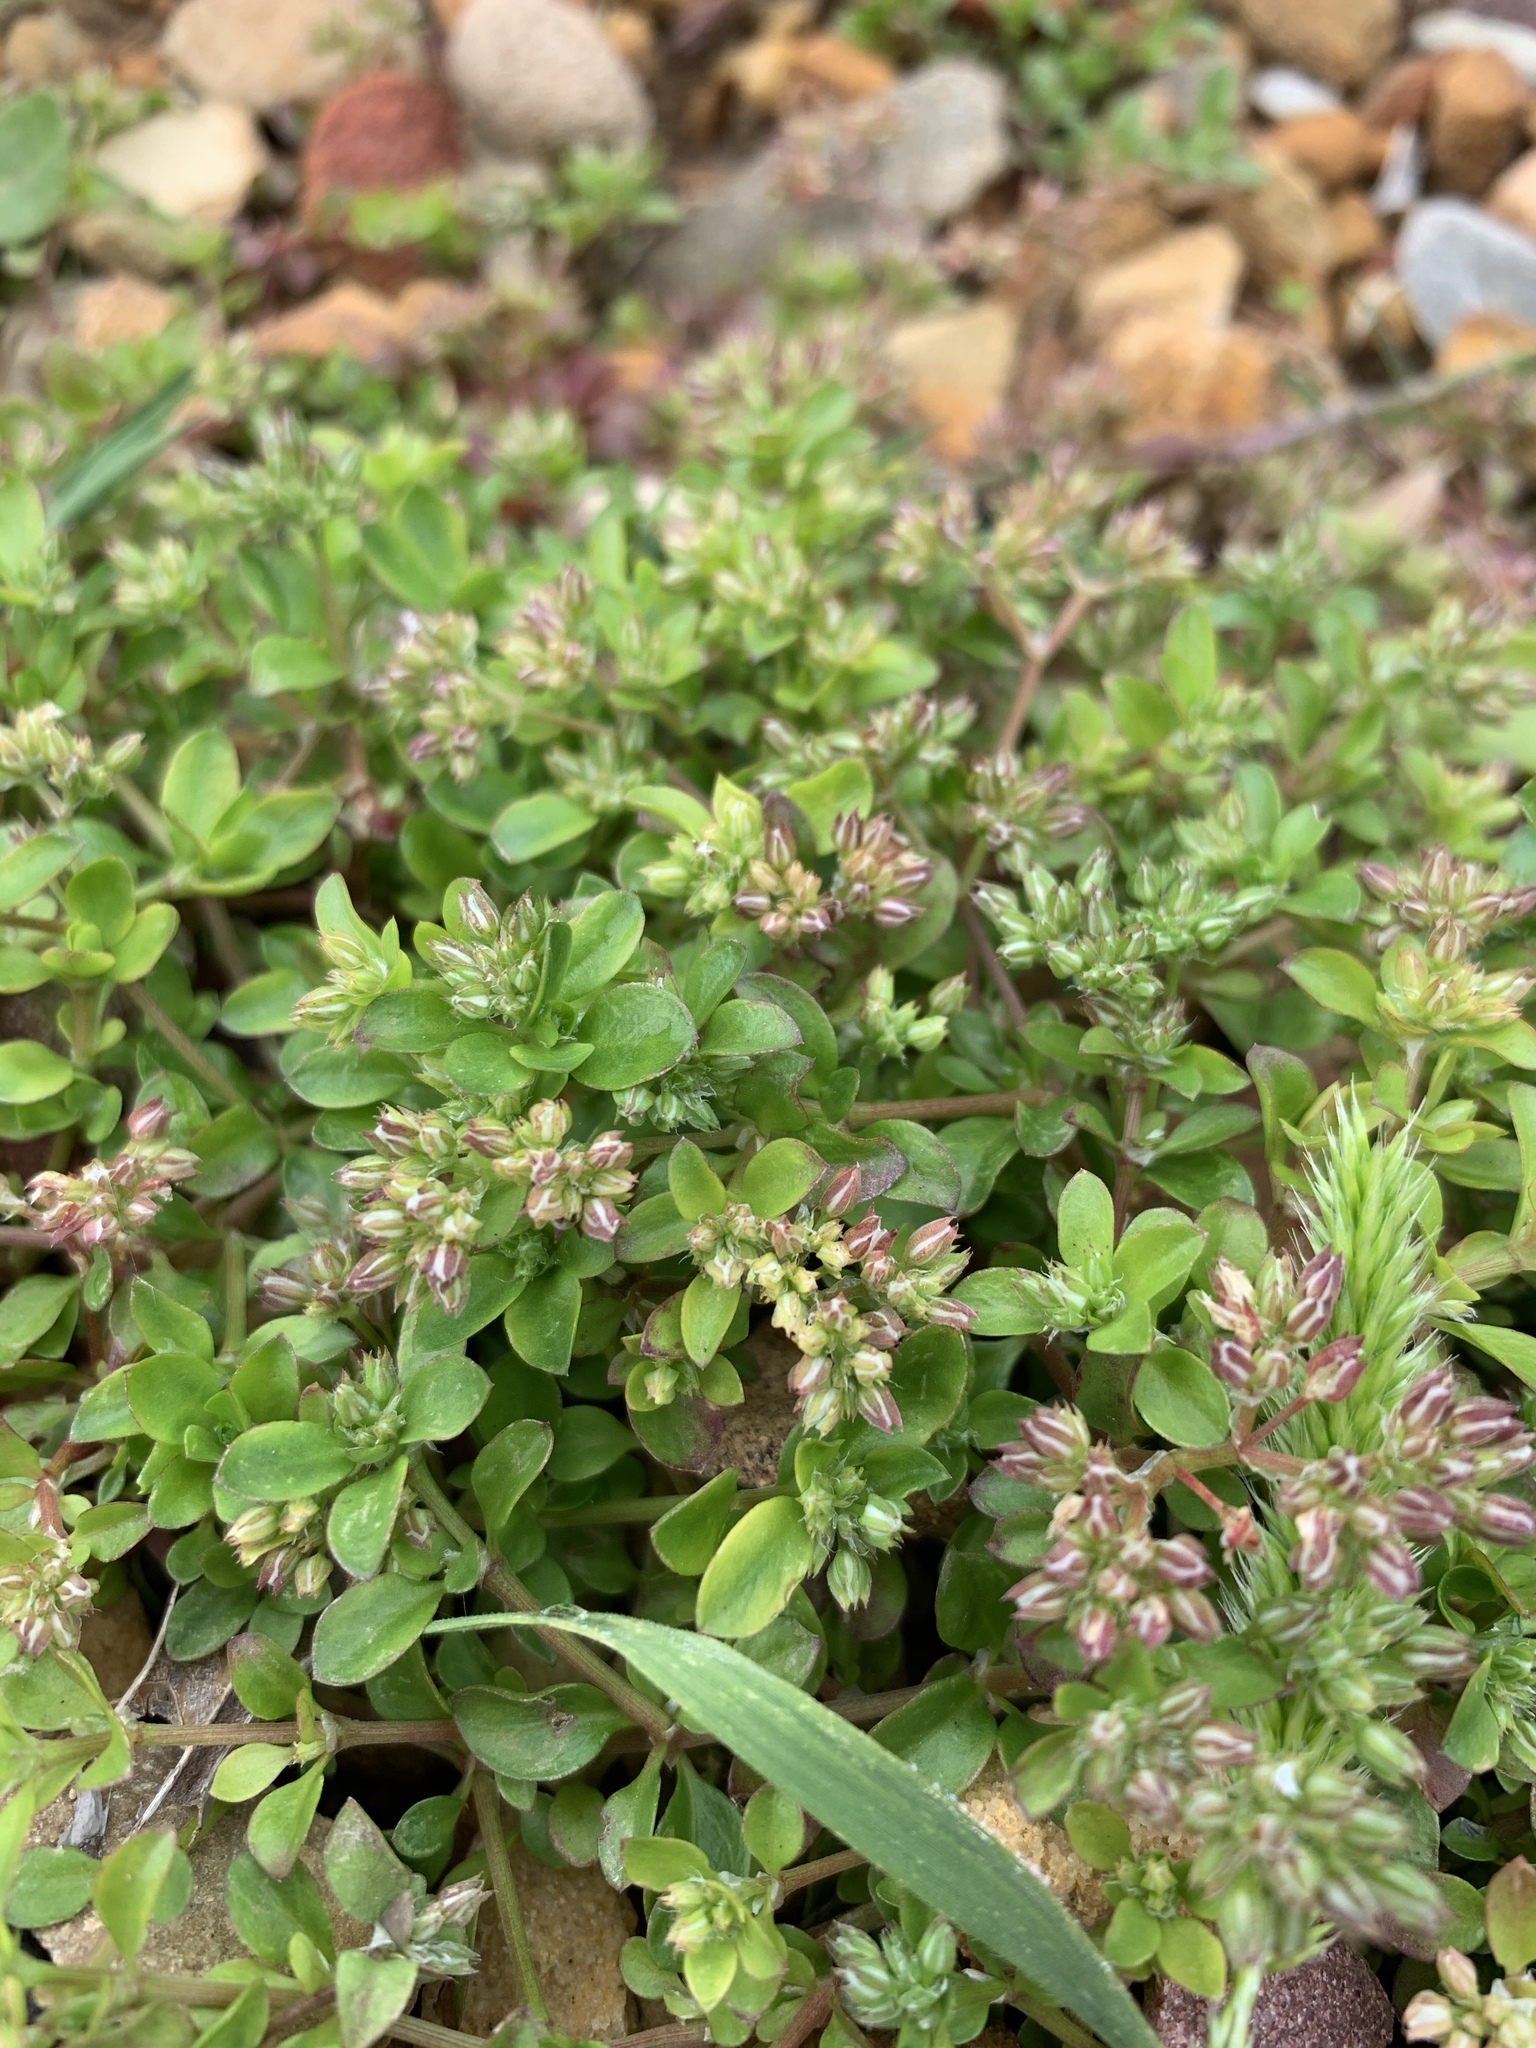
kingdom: Plantae
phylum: Tracheophyta
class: Magnoliopsida
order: Caryophyllales
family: Caryophyllaceae
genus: Polycarpon
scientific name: Polycarpon tetraphyllum
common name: Four-leaved all-seed
